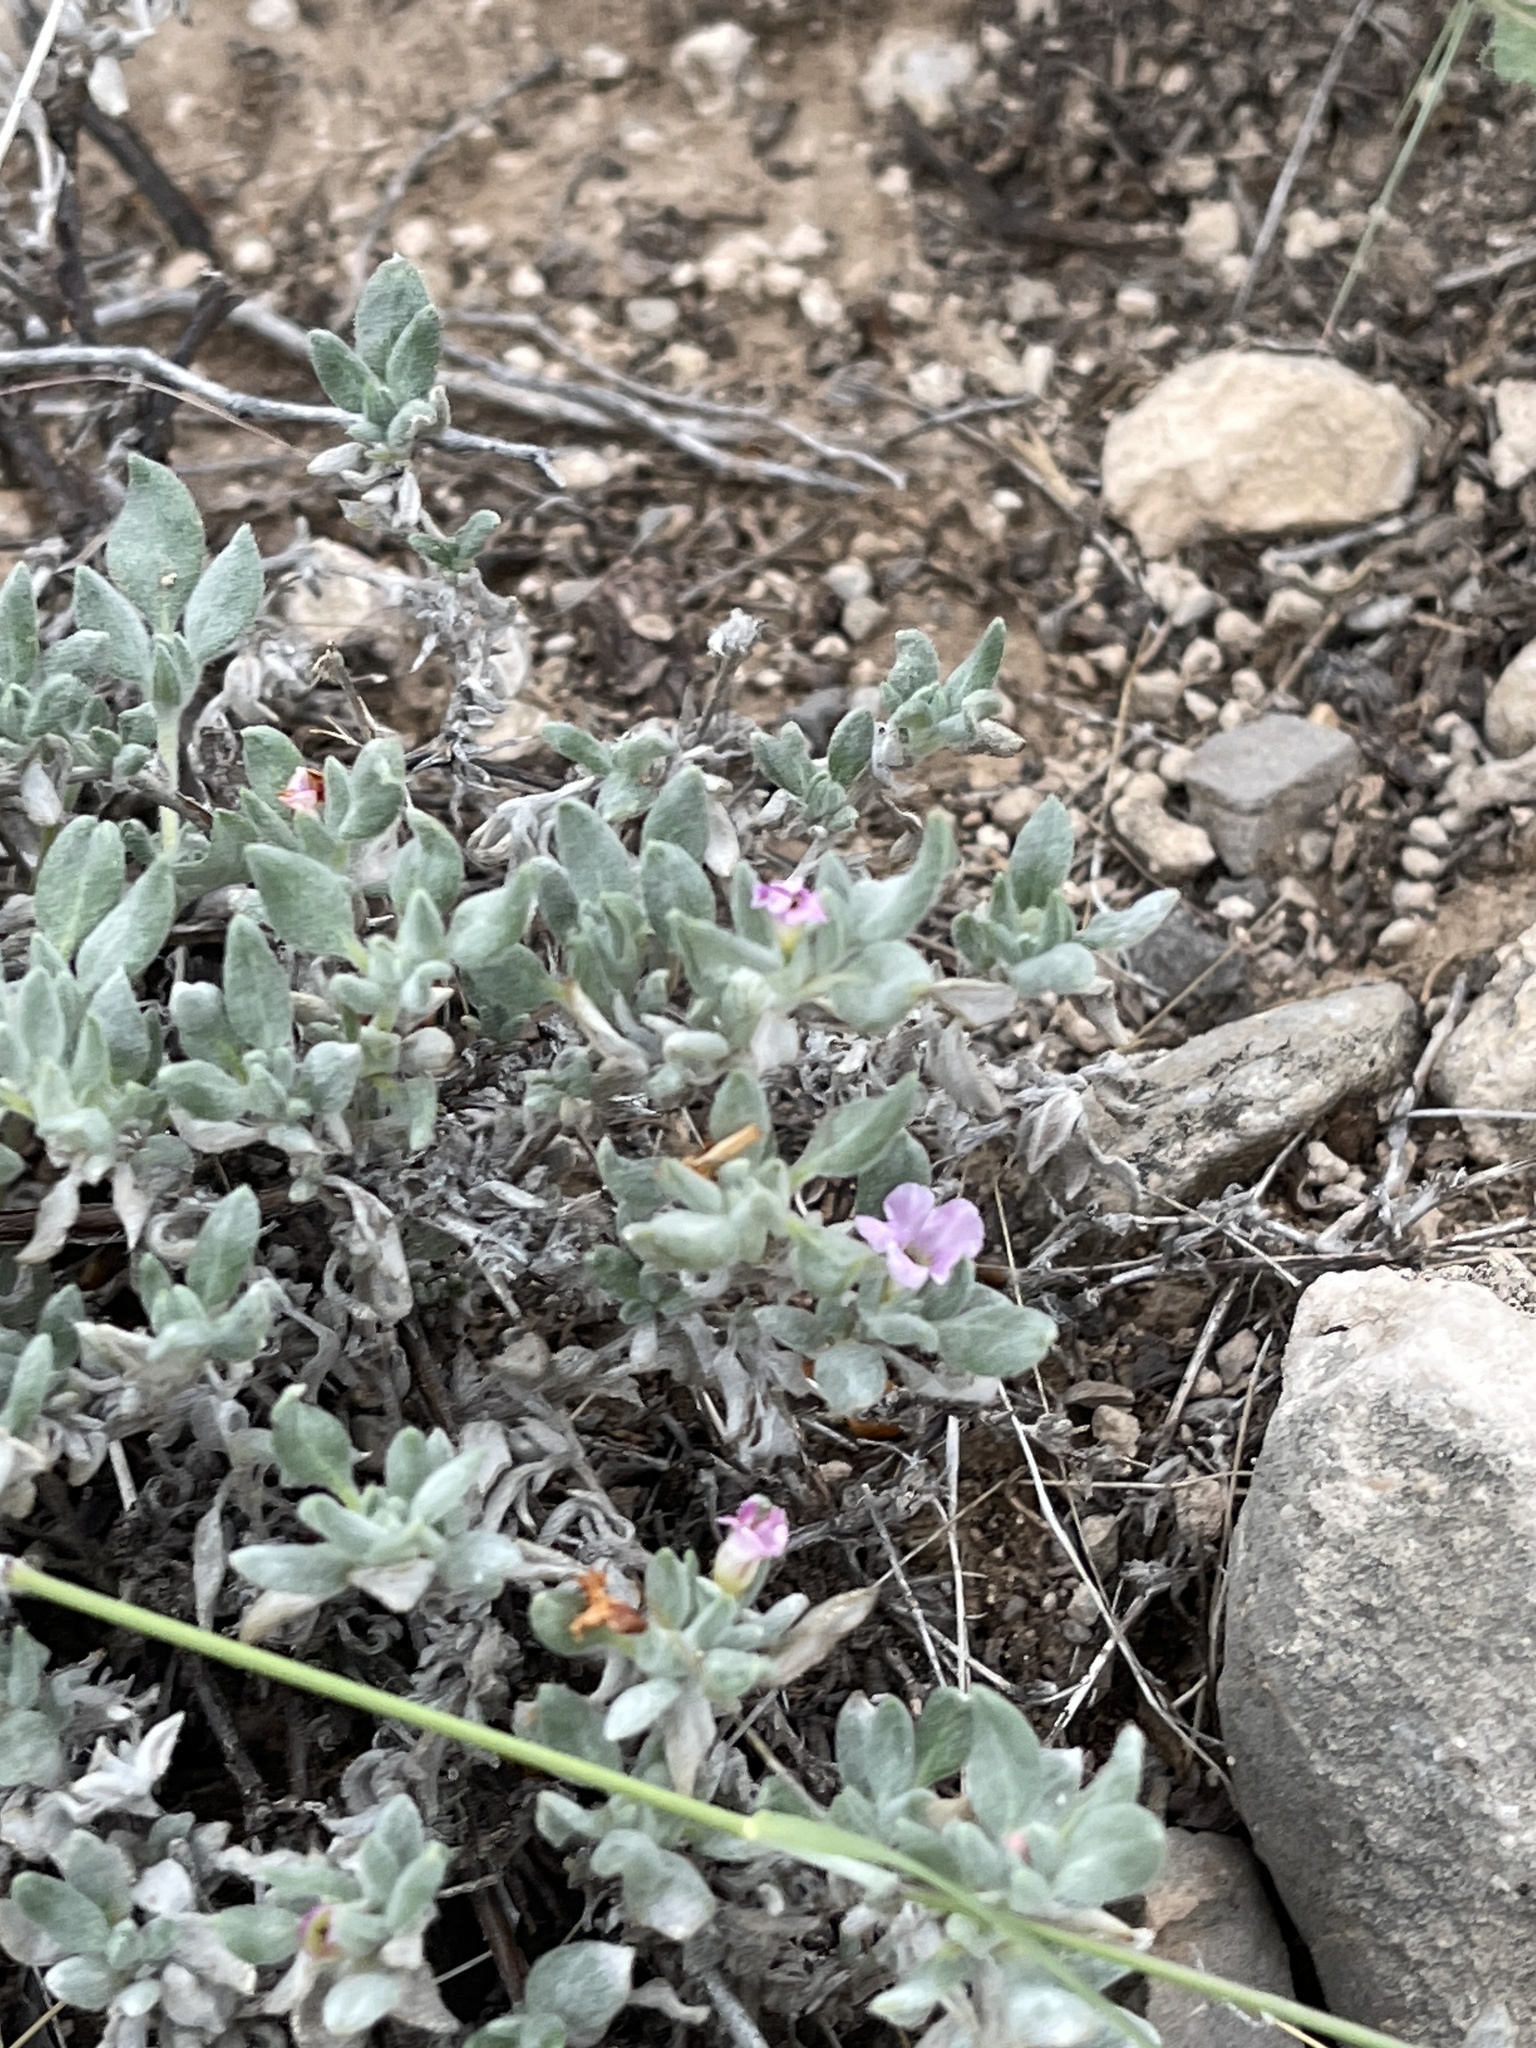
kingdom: Plantae
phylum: Tracheophyta
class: Magnoliopsida
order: Boraginales
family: Ehretiaceae
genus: Tiquilia
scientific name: Tiquilia canescens
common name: Hairy tiquilia
